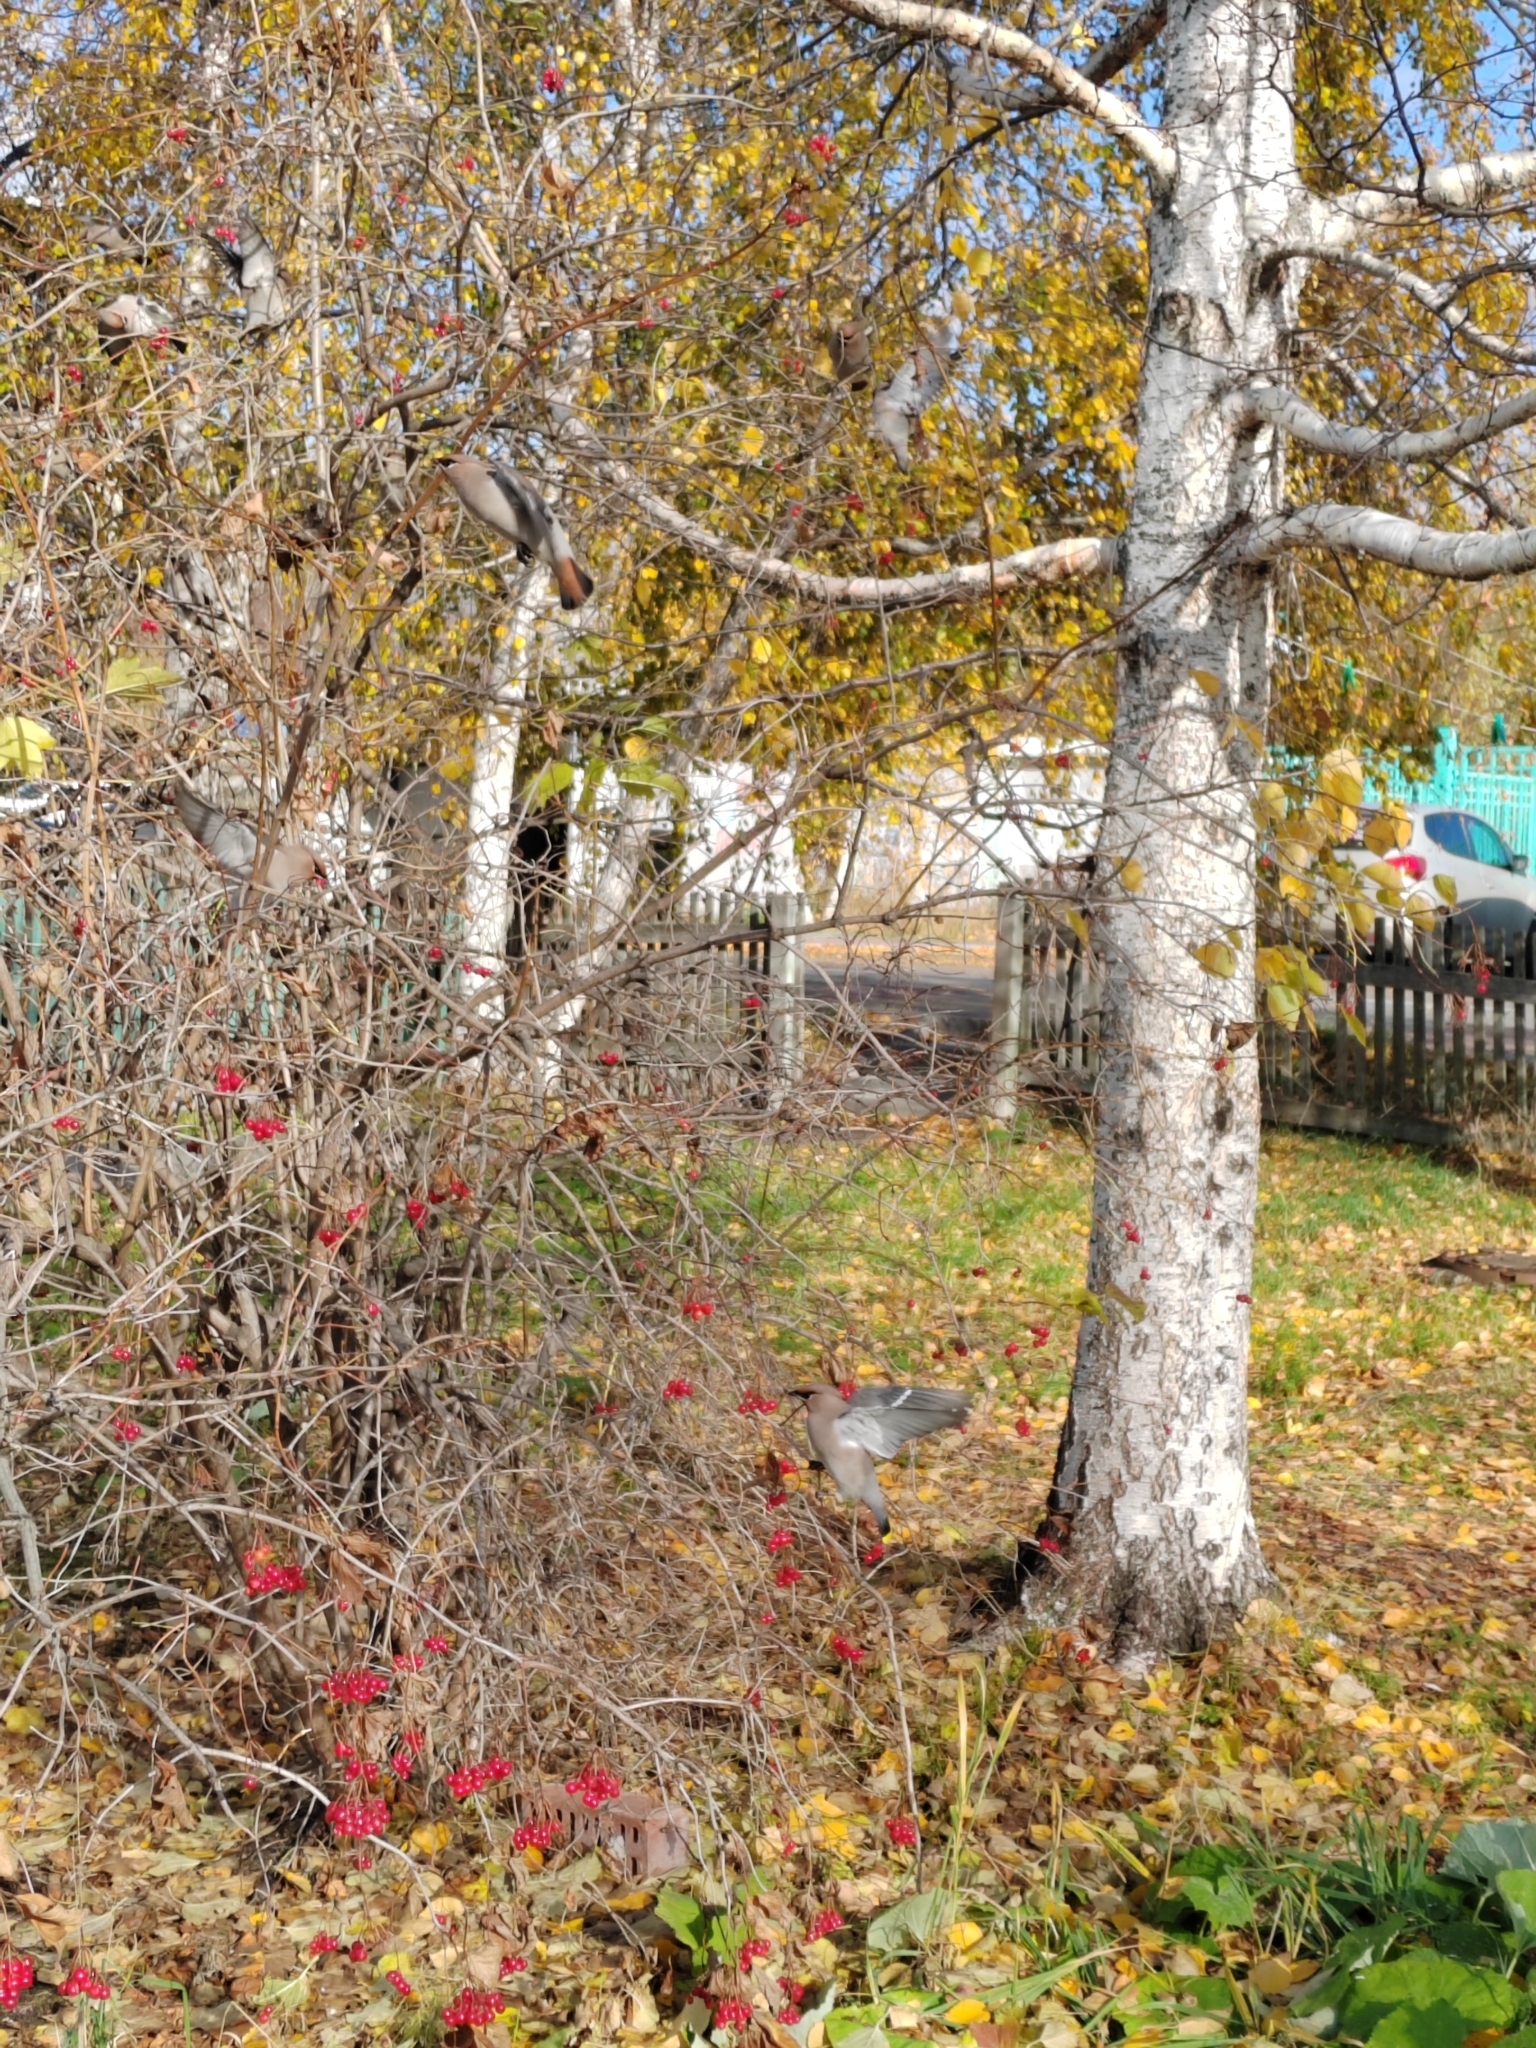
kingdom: Animalia
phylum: Chordata
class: Aves
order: Passeriformes
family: Bombycillidae
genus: Bombycilla
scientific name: Bombycilla garrulus
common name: Bohemian waxwing
